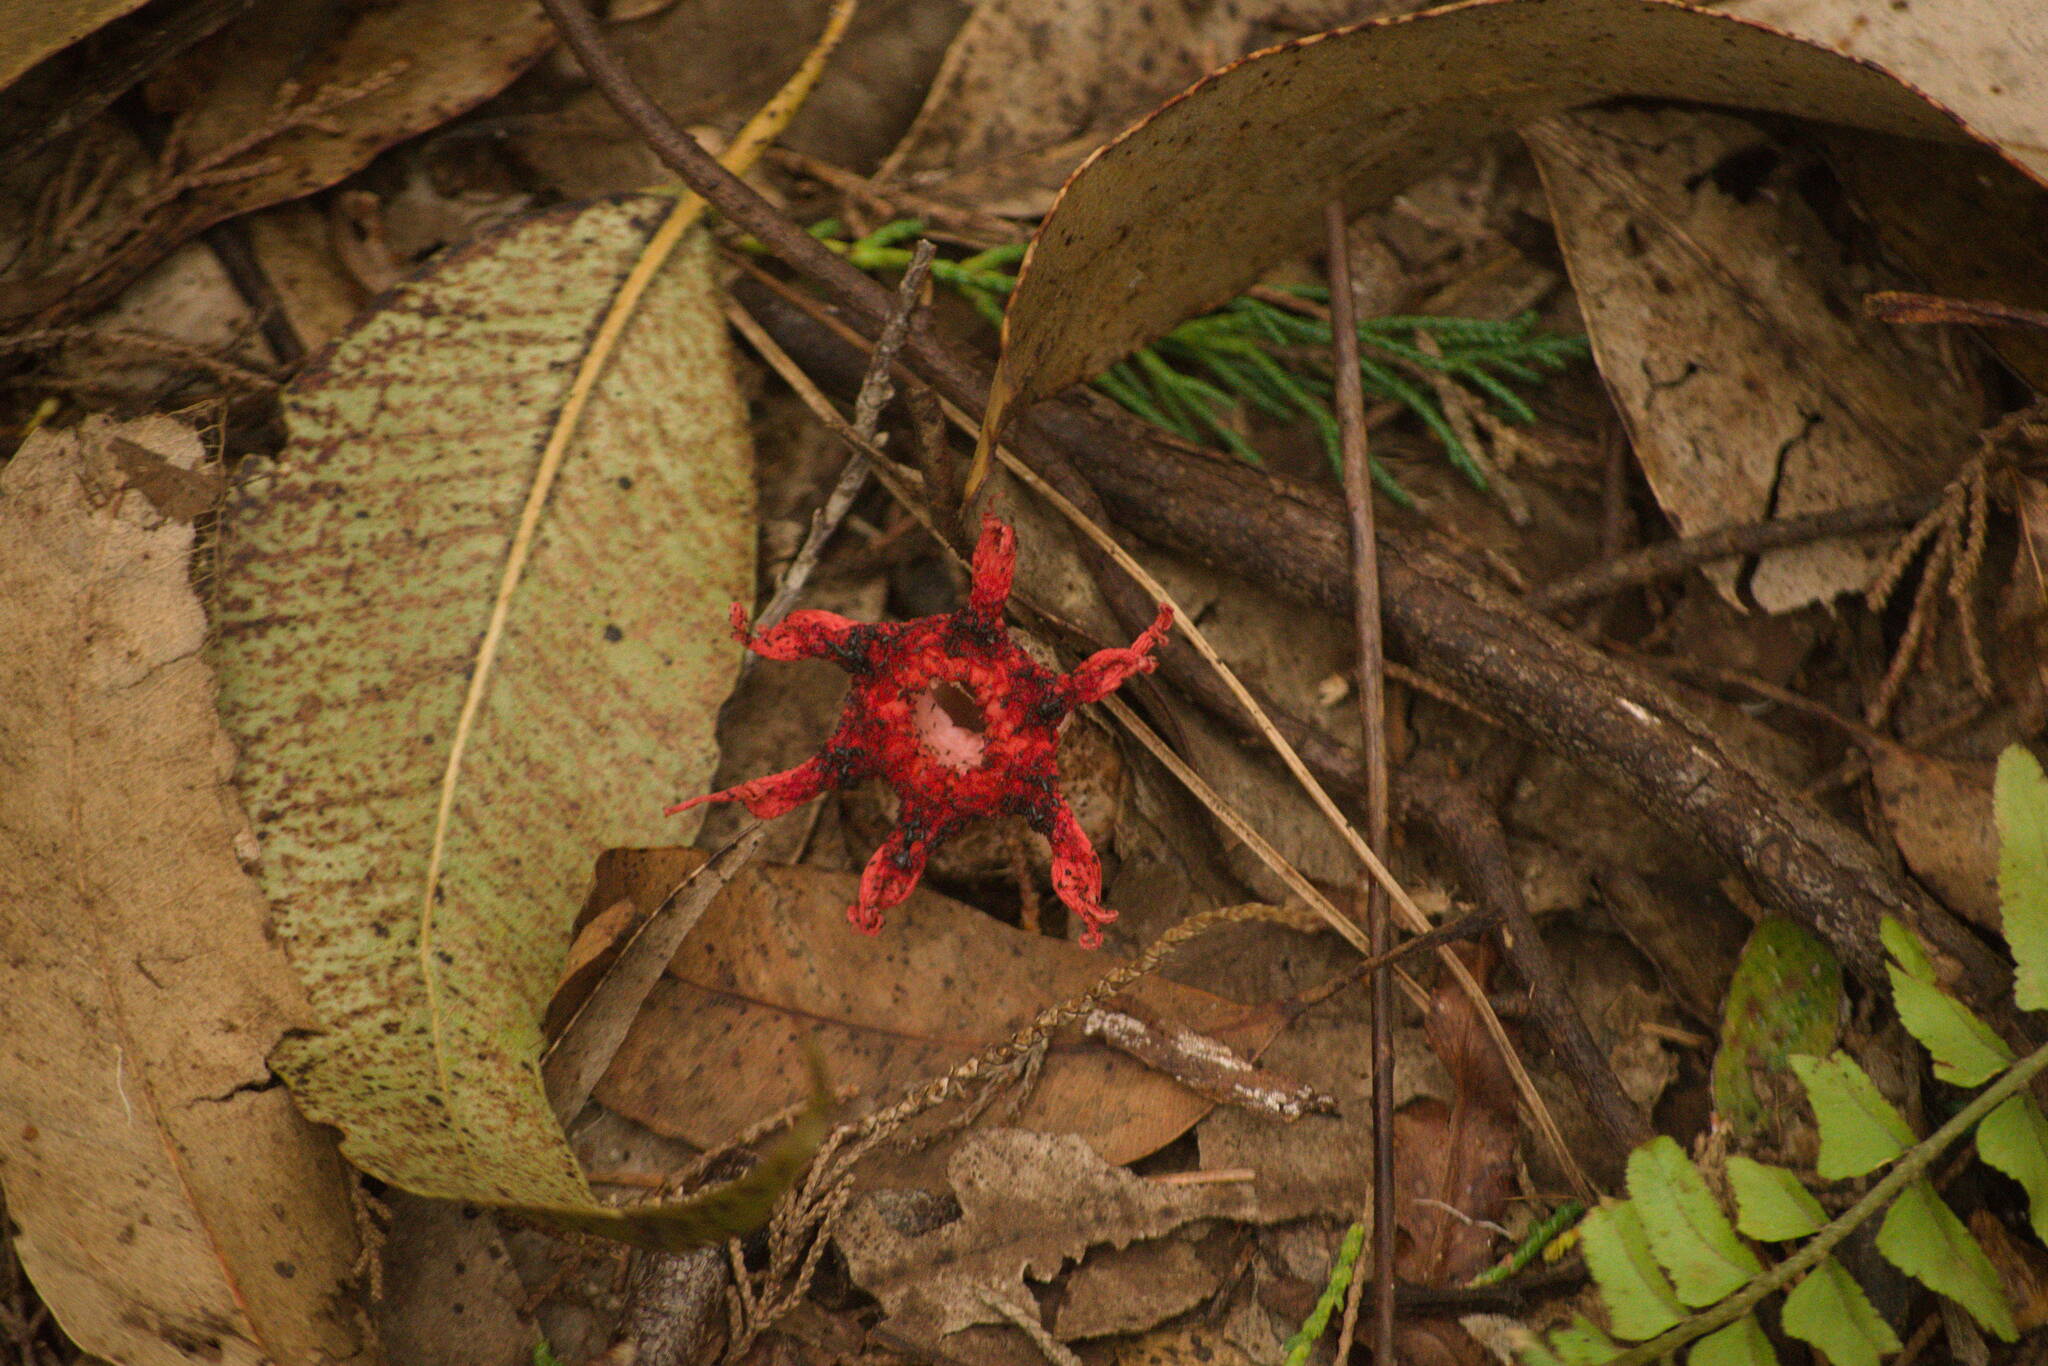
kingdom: Fungi
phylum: Basidiomycota
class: Agaricomycetes
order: Phallales
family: Phallaceae
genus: Aseroe
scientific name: Aseroe rubra
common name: Starfish fungus
